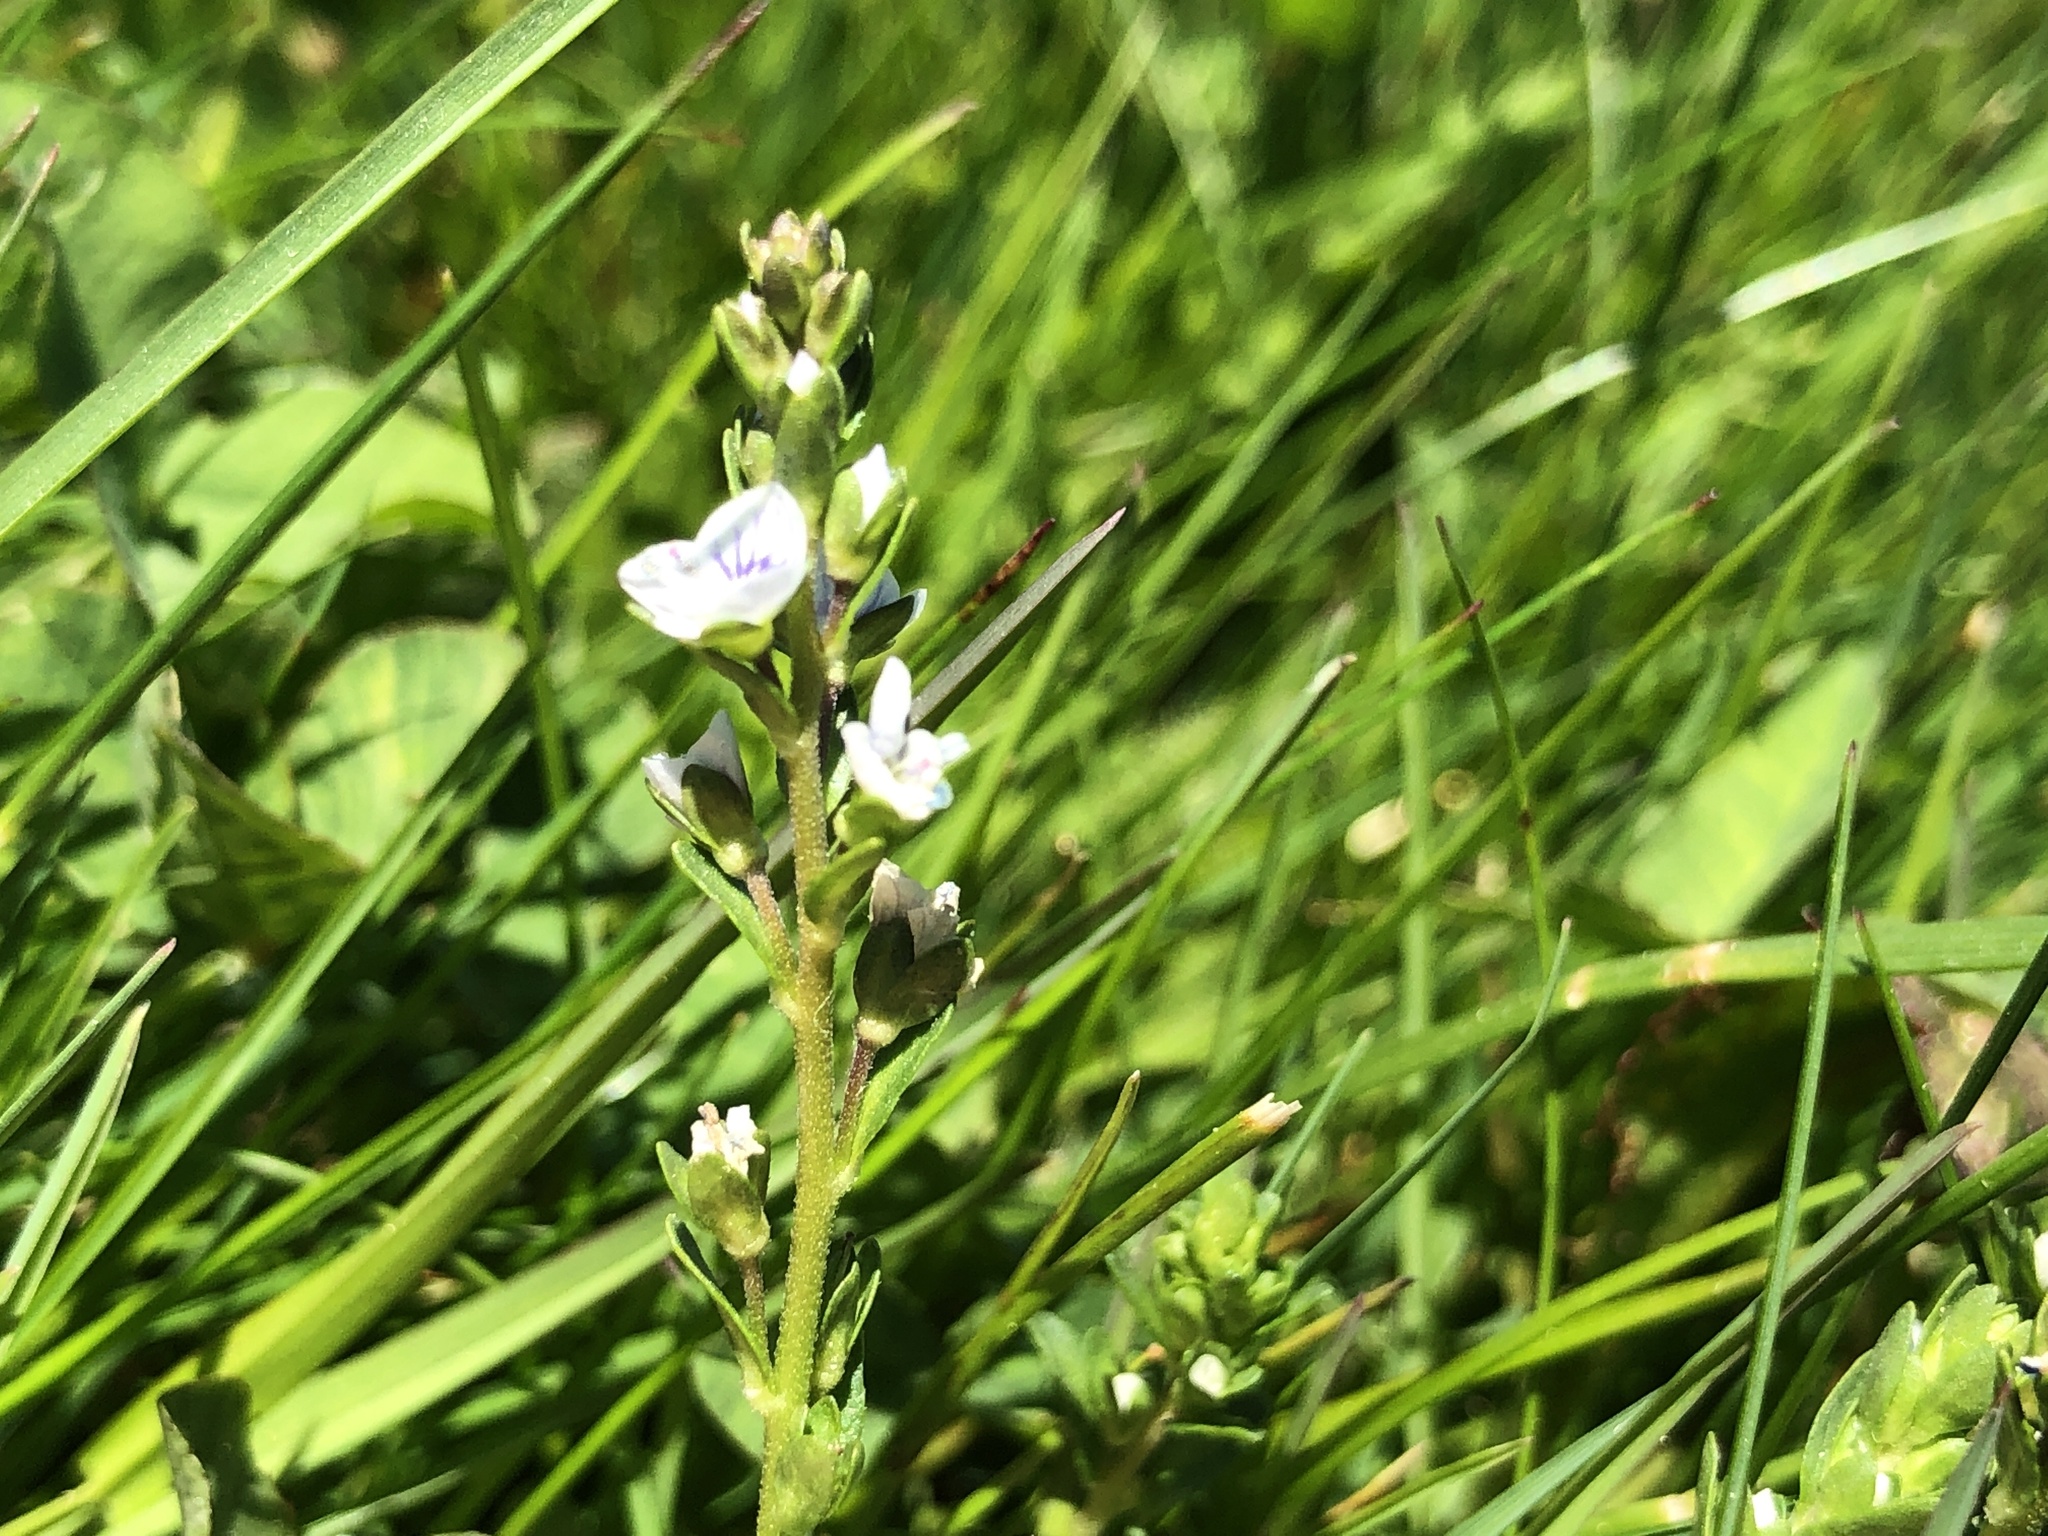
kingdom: Plantae
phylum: Tracheophyta
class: Magnoliopsida
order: Lamiales
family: Plantaginaceae
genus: Veronica
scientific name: Veronica serpyllifolia
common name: Thyme-leaved speedwell
